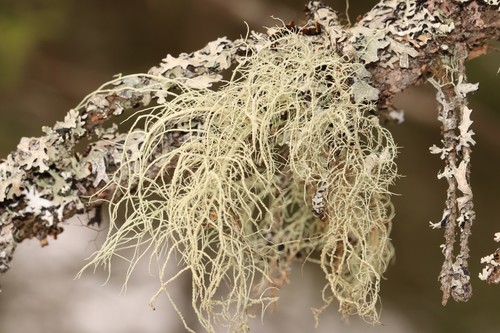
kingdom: Fungi
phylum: Ascomycota
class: Lecanoromycetes
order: Lecanorales
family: Parmeliaceae
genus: Usnea
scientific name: Usnea
